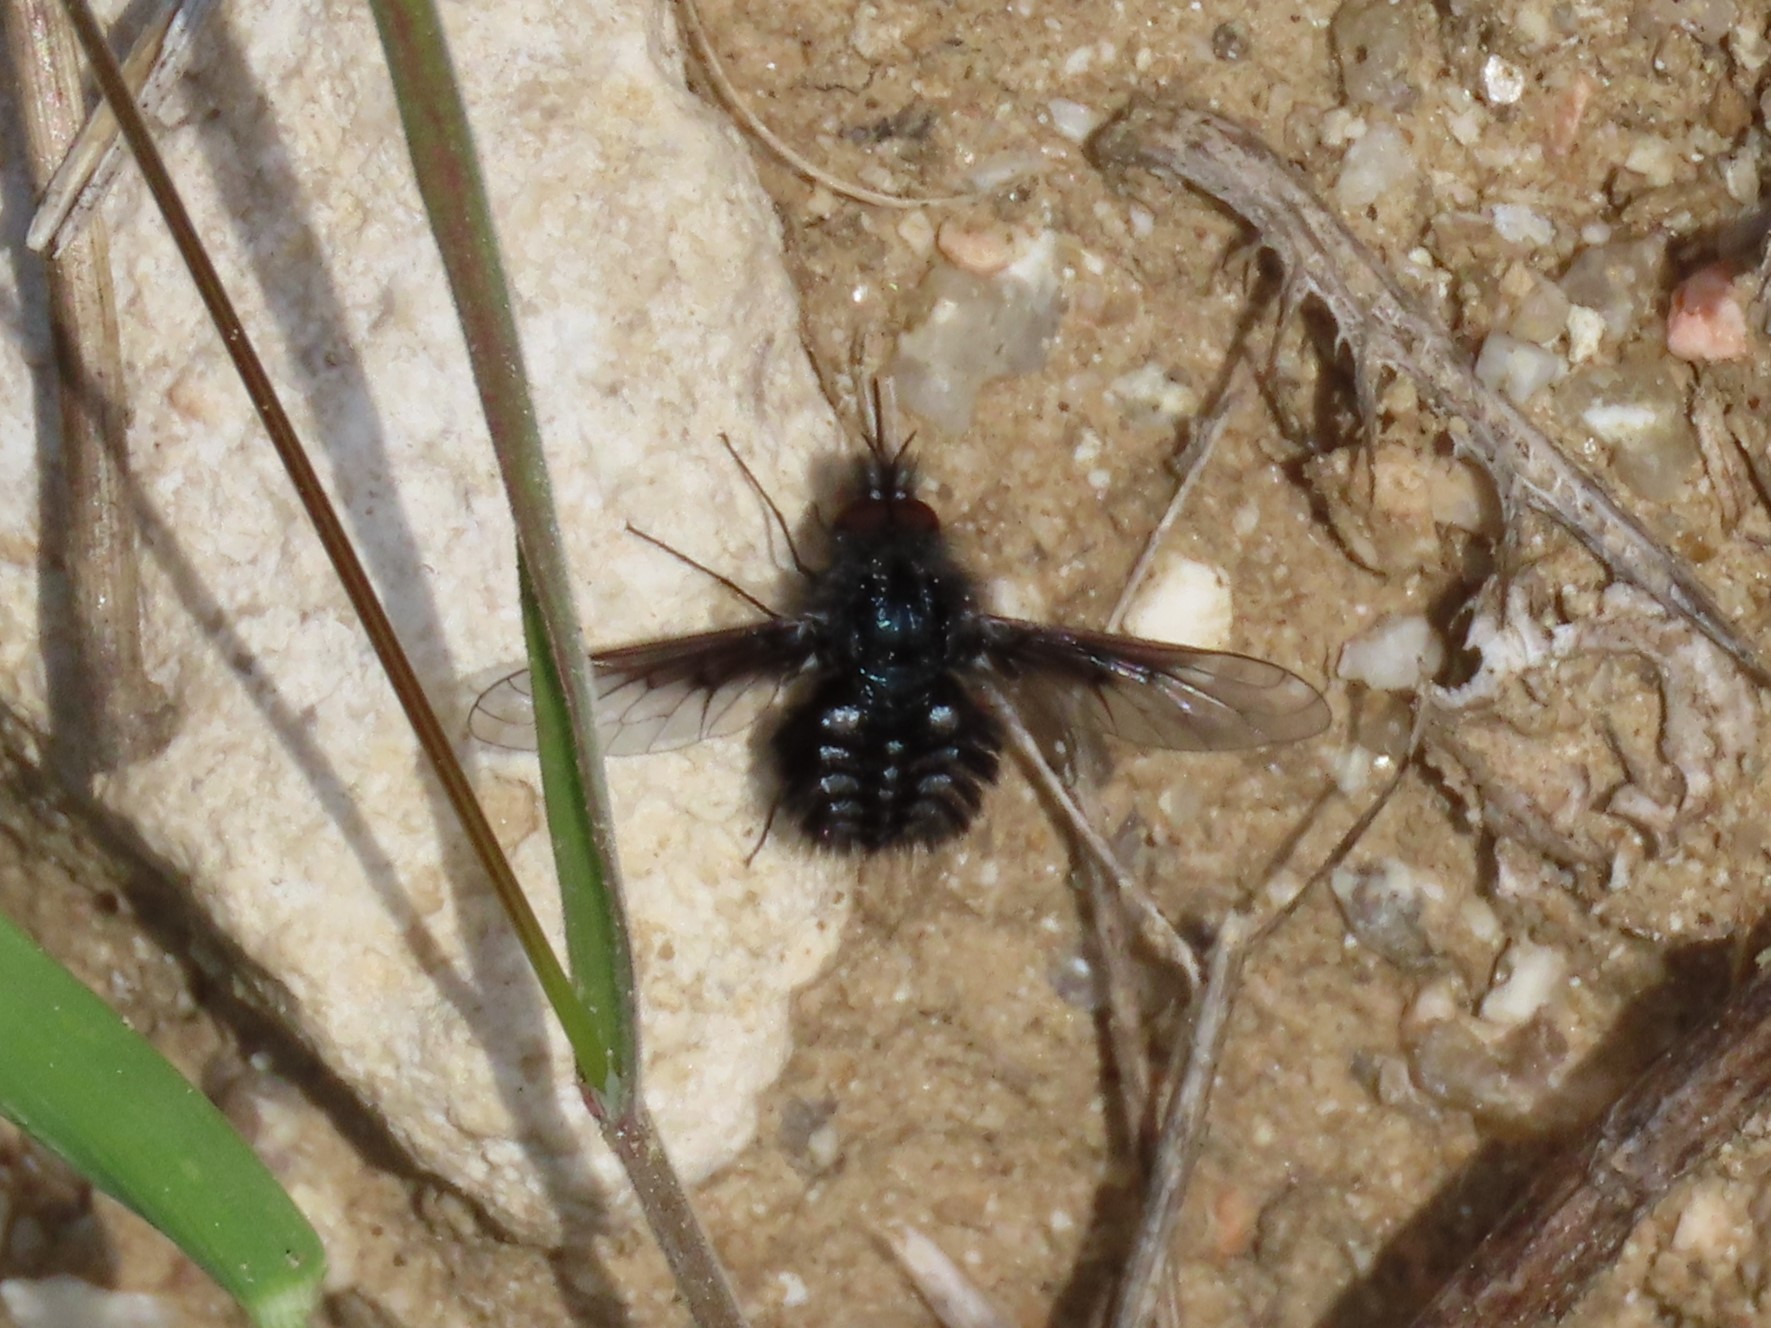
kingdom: Animalia
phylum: Arthropoda
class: Insecta
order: Diptera
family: Bombyliidae
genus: Bombylella
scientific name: Bombylella atra
